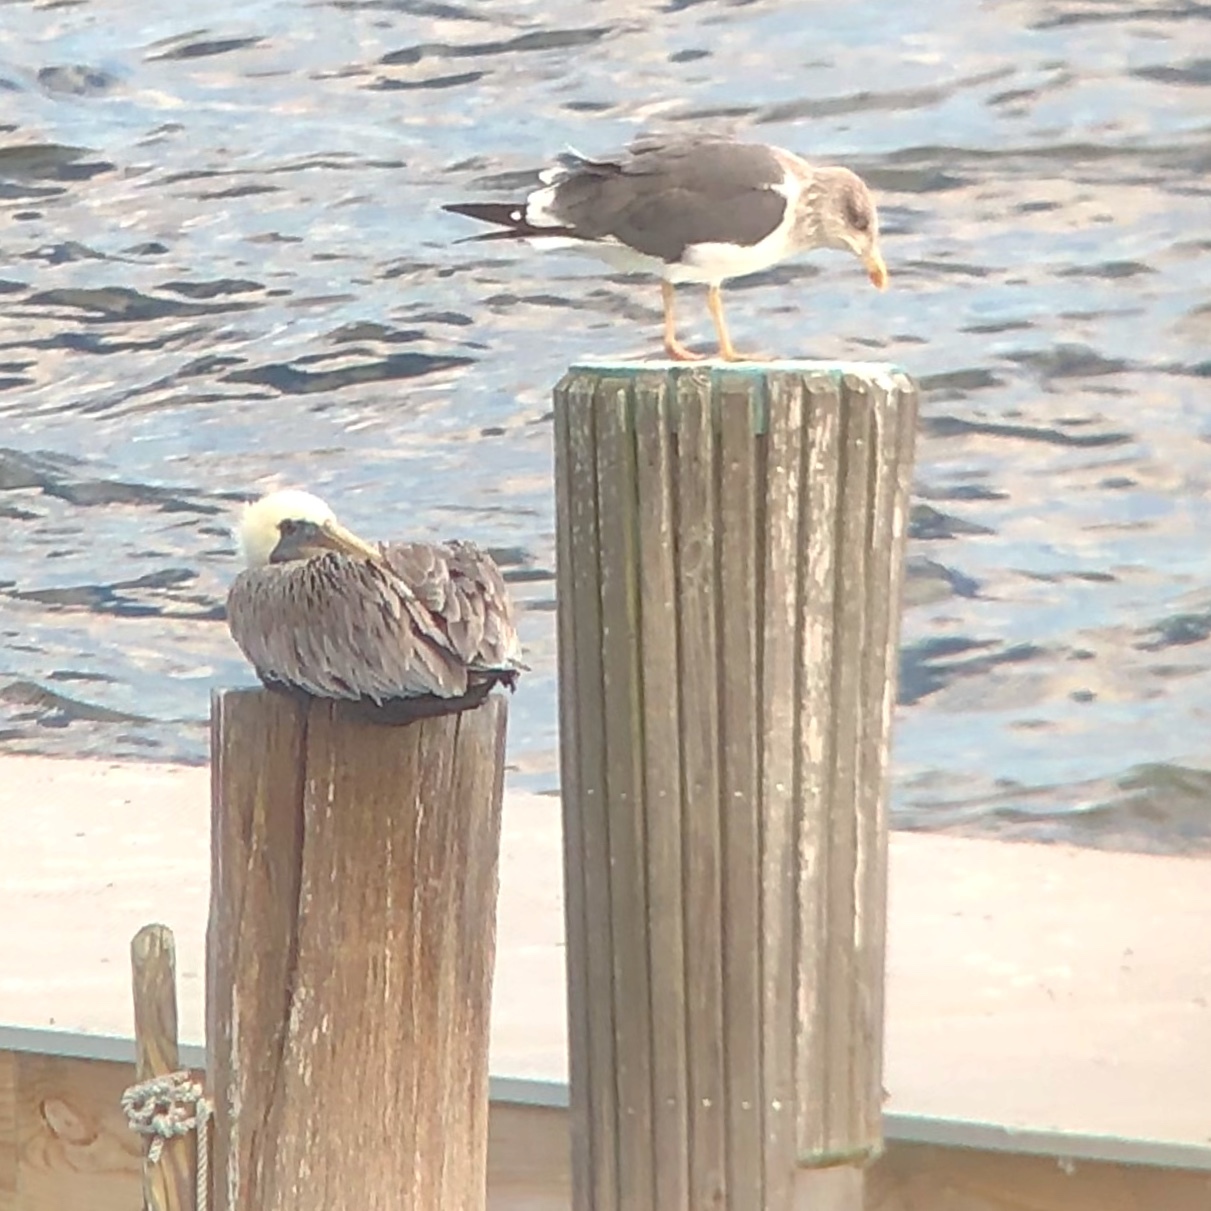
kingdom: Animalia
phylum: Chordata
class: Aves
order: Charadriiformes
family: Laridae
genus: Larus
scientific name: Larus fuscus
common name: Lesser black-backed gull
